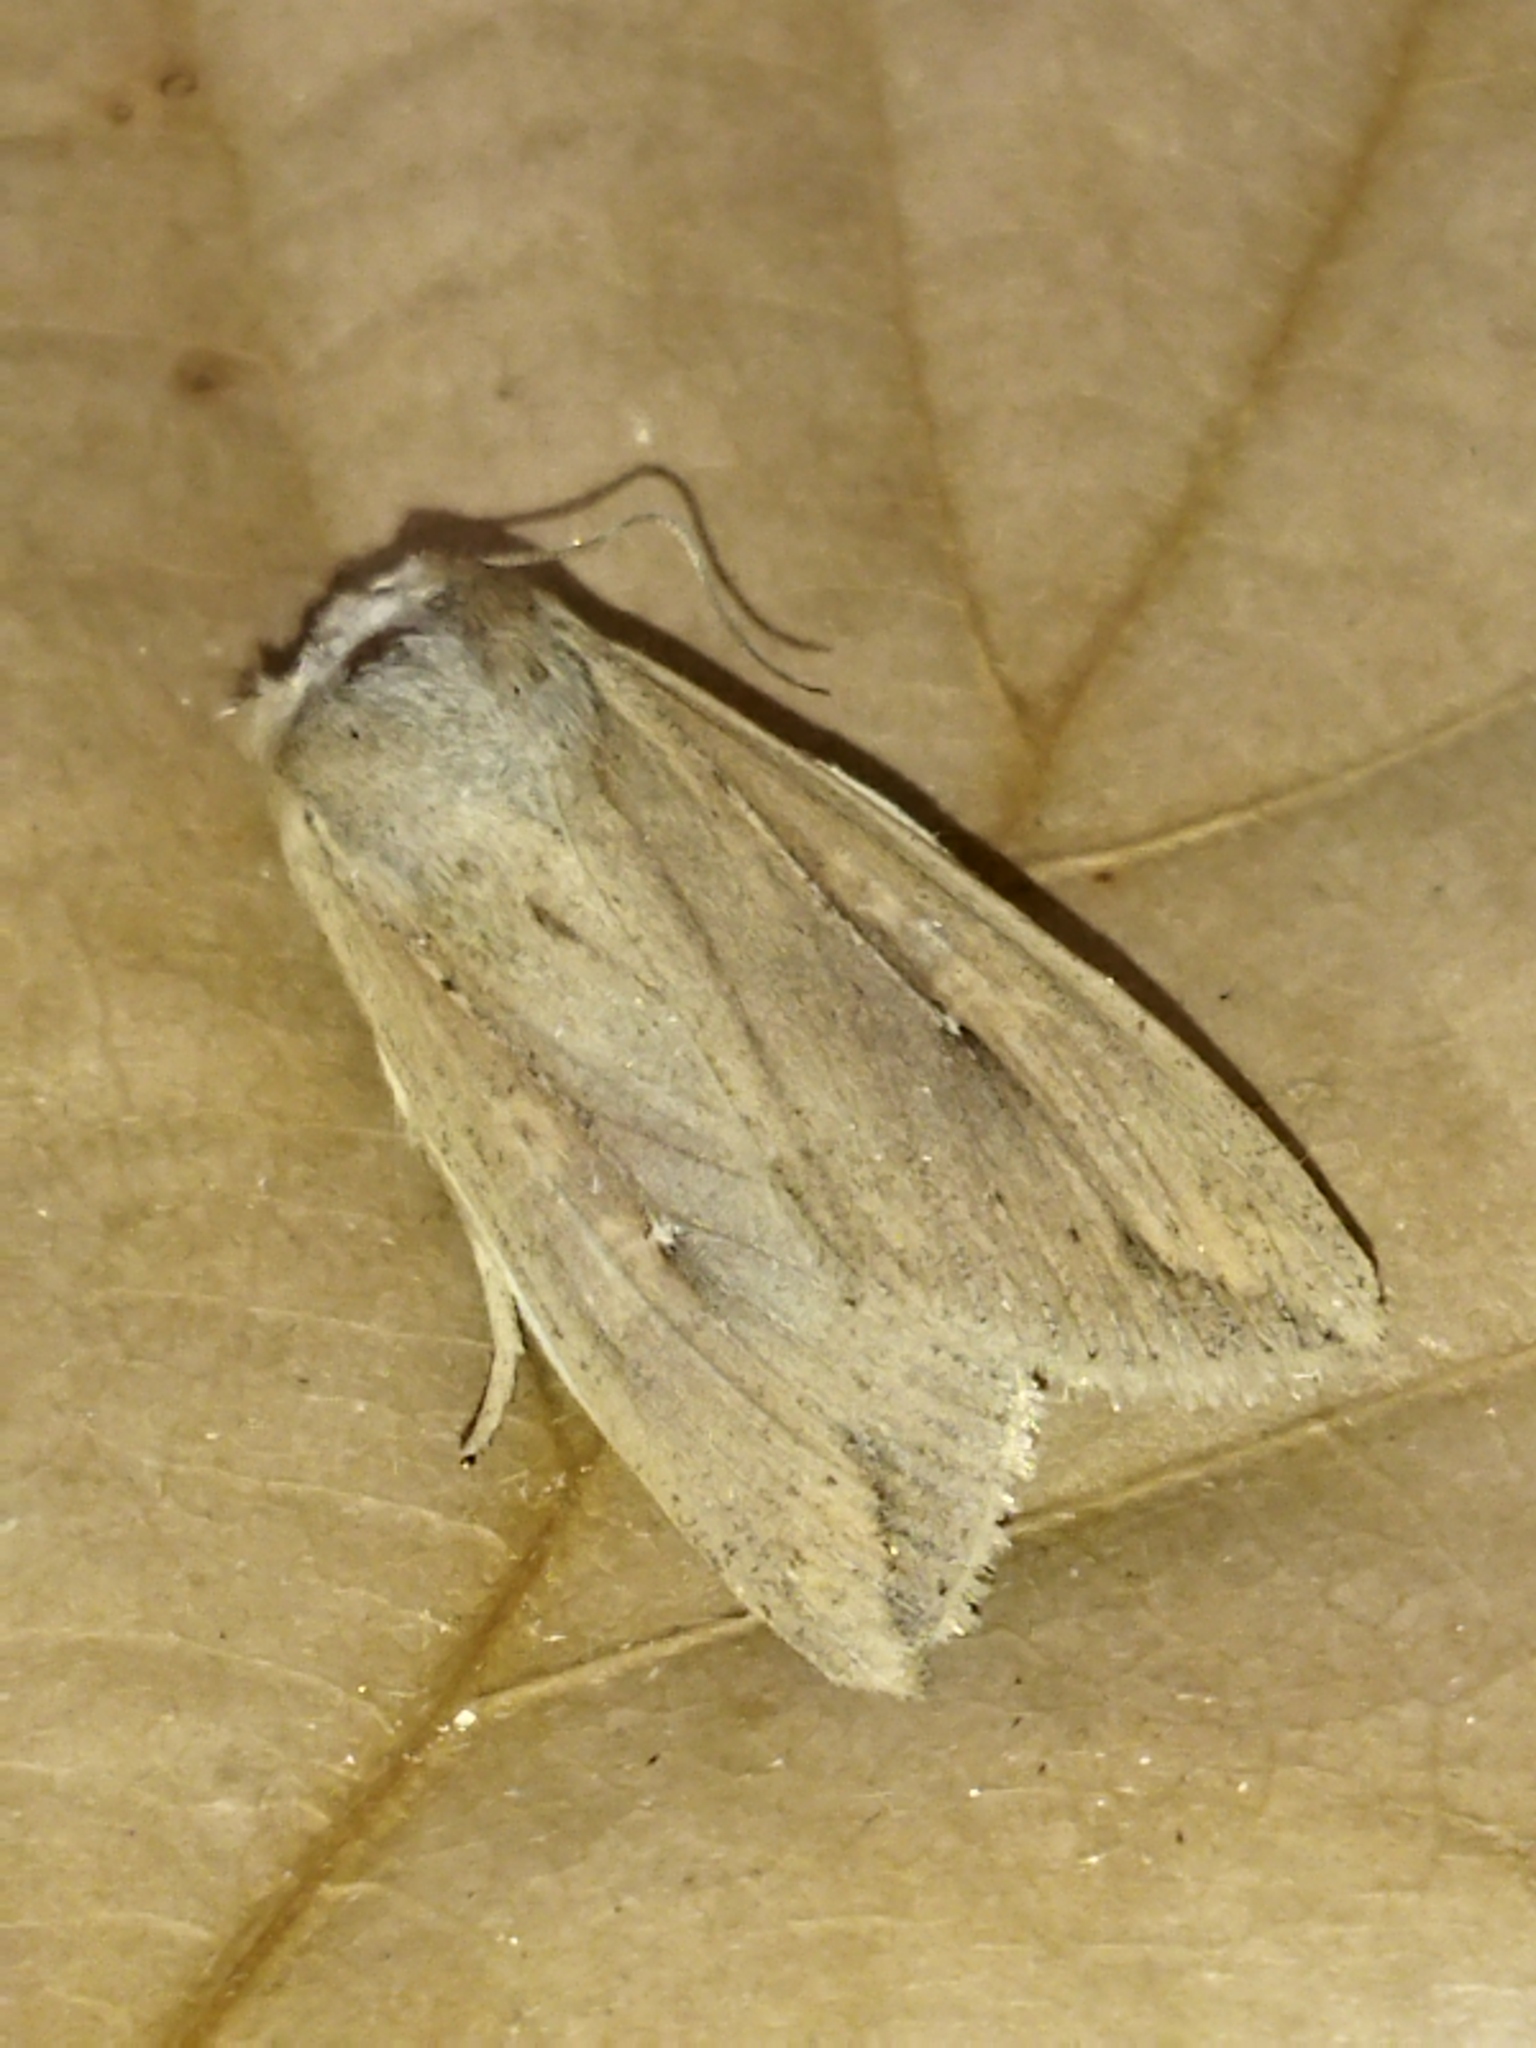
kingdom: Animalia
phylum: Arthropoda
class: Insecta
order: Lepidoptera
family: Noctuidae
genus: Mythimna
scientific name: Mythimna unipuncta
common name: White-speck
